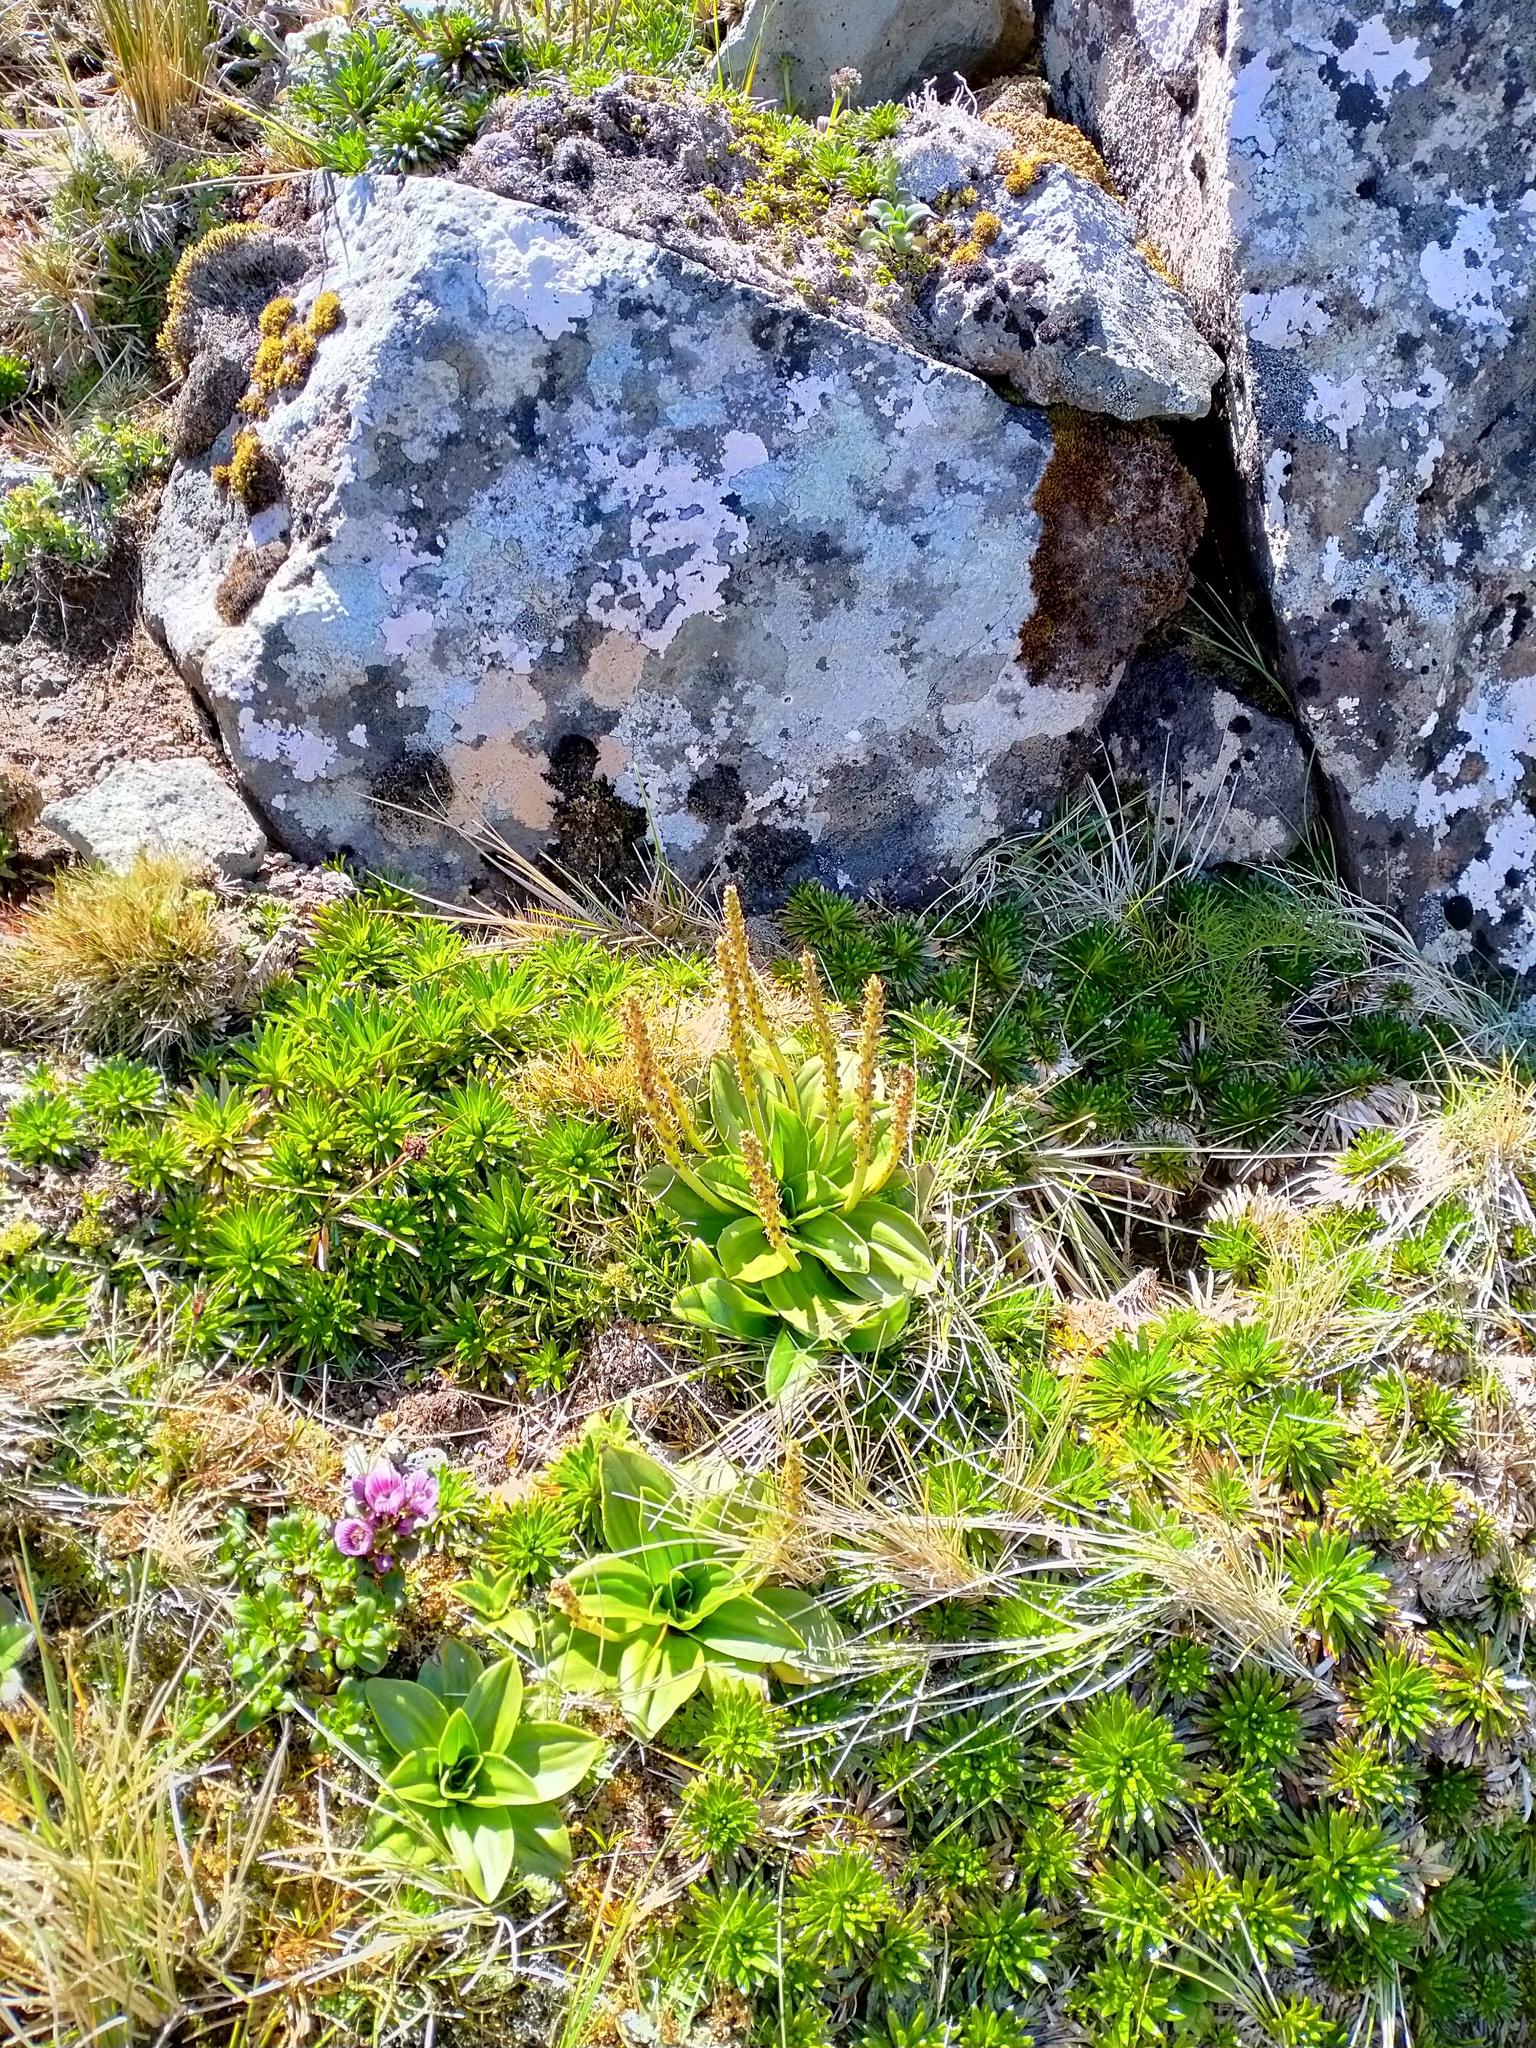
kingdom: Plantae
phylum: Tracheophyta
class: Magnoliopsida
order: Lamiales
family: Plantaginaceae
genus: Plantago
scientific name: Plantago aucklandica
